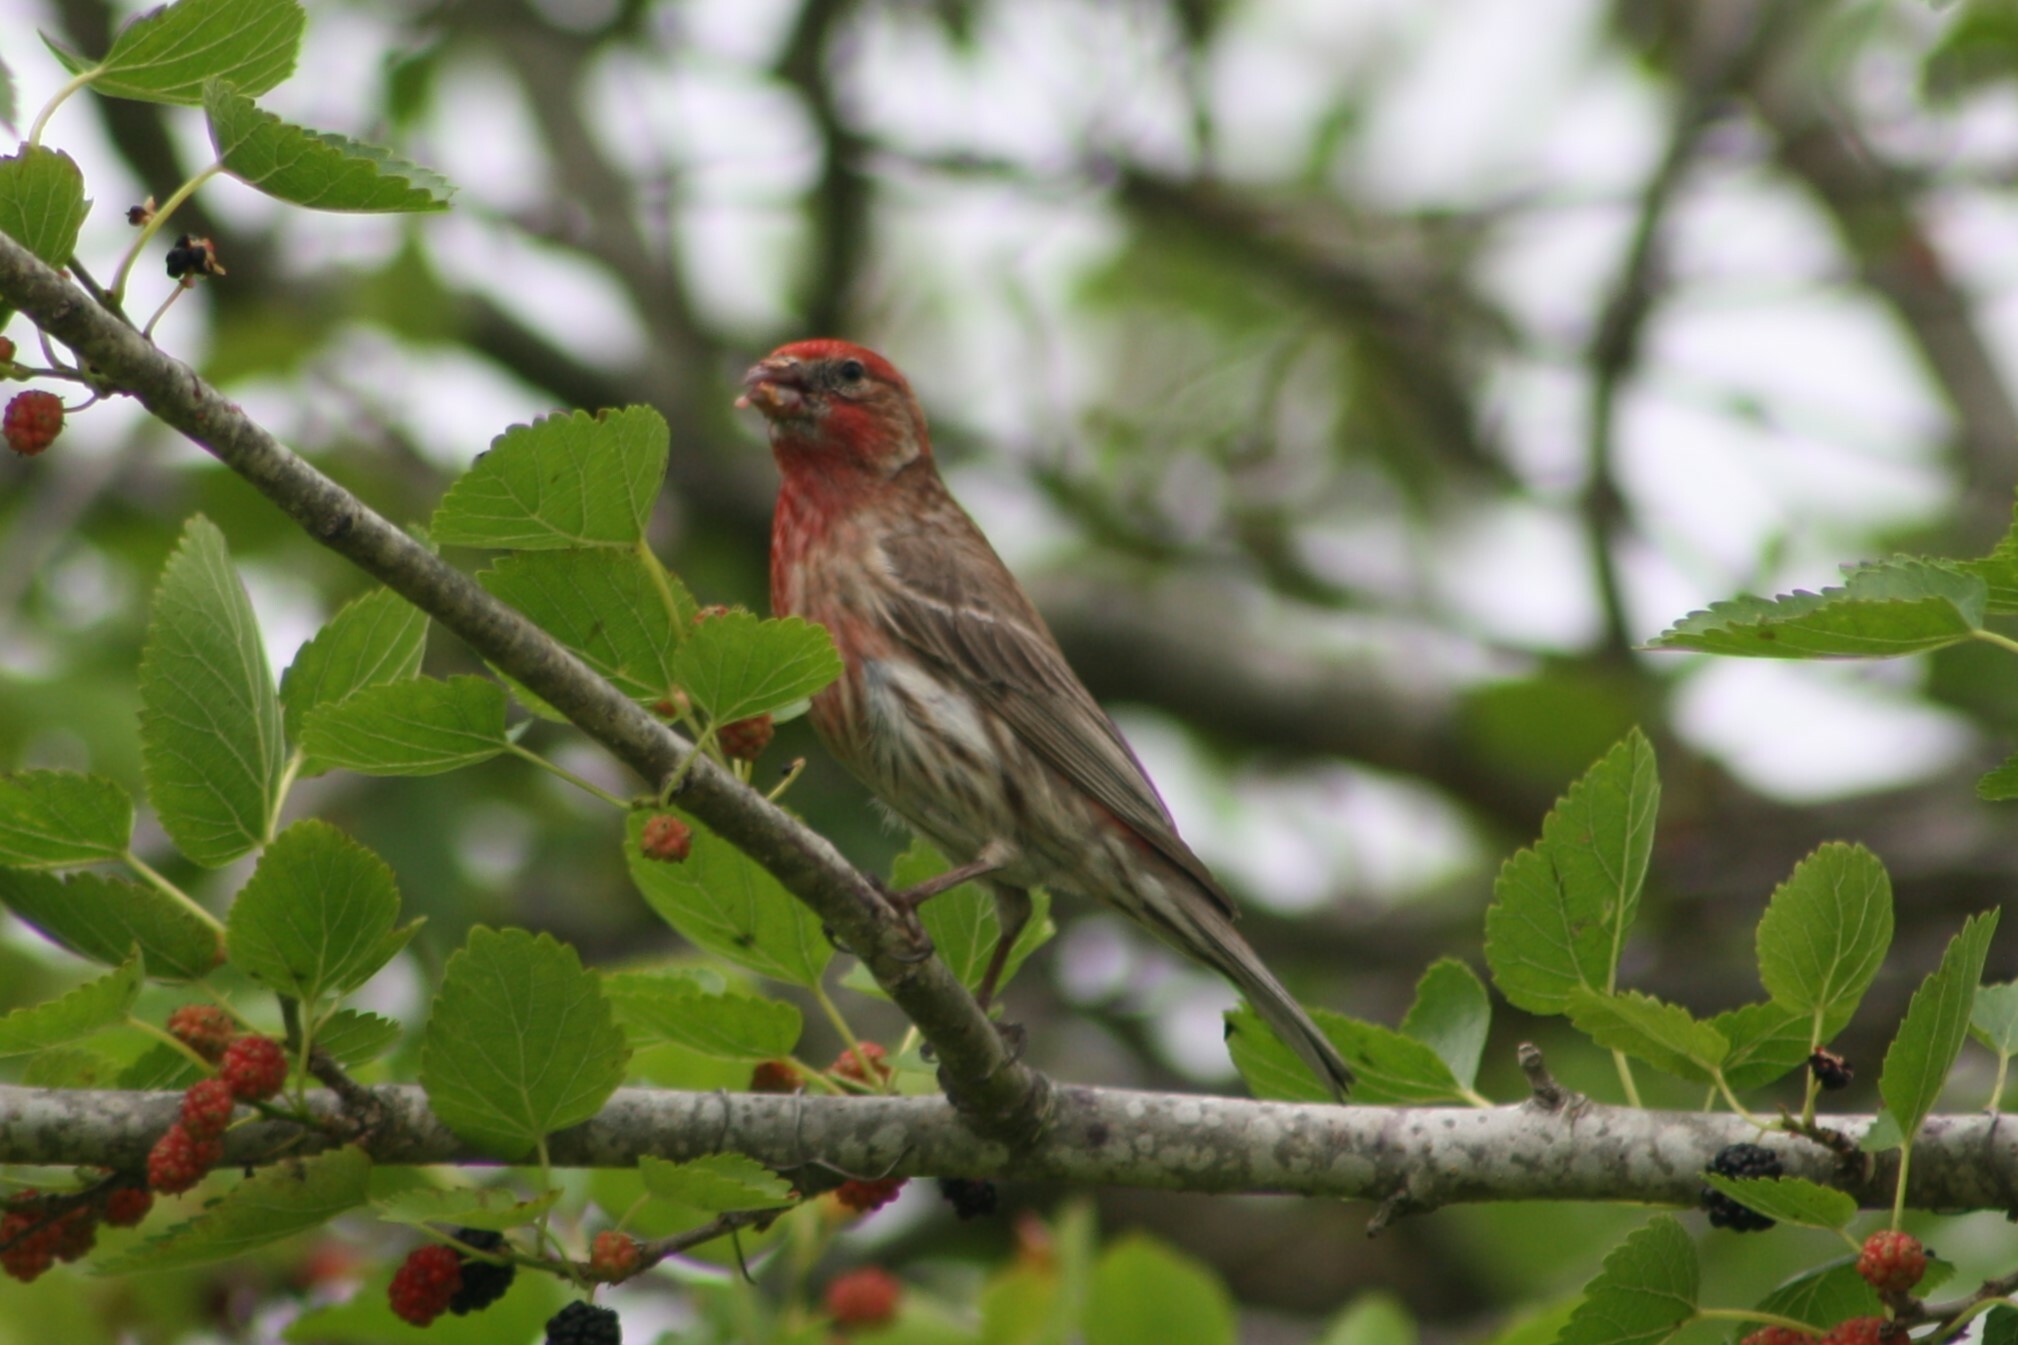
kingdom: Animalia
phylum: Chordata
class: Aves
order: Passeriformes
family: Fringillidae
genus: Haemorhous
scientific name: Haemorhous mexicanus
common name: House finch
